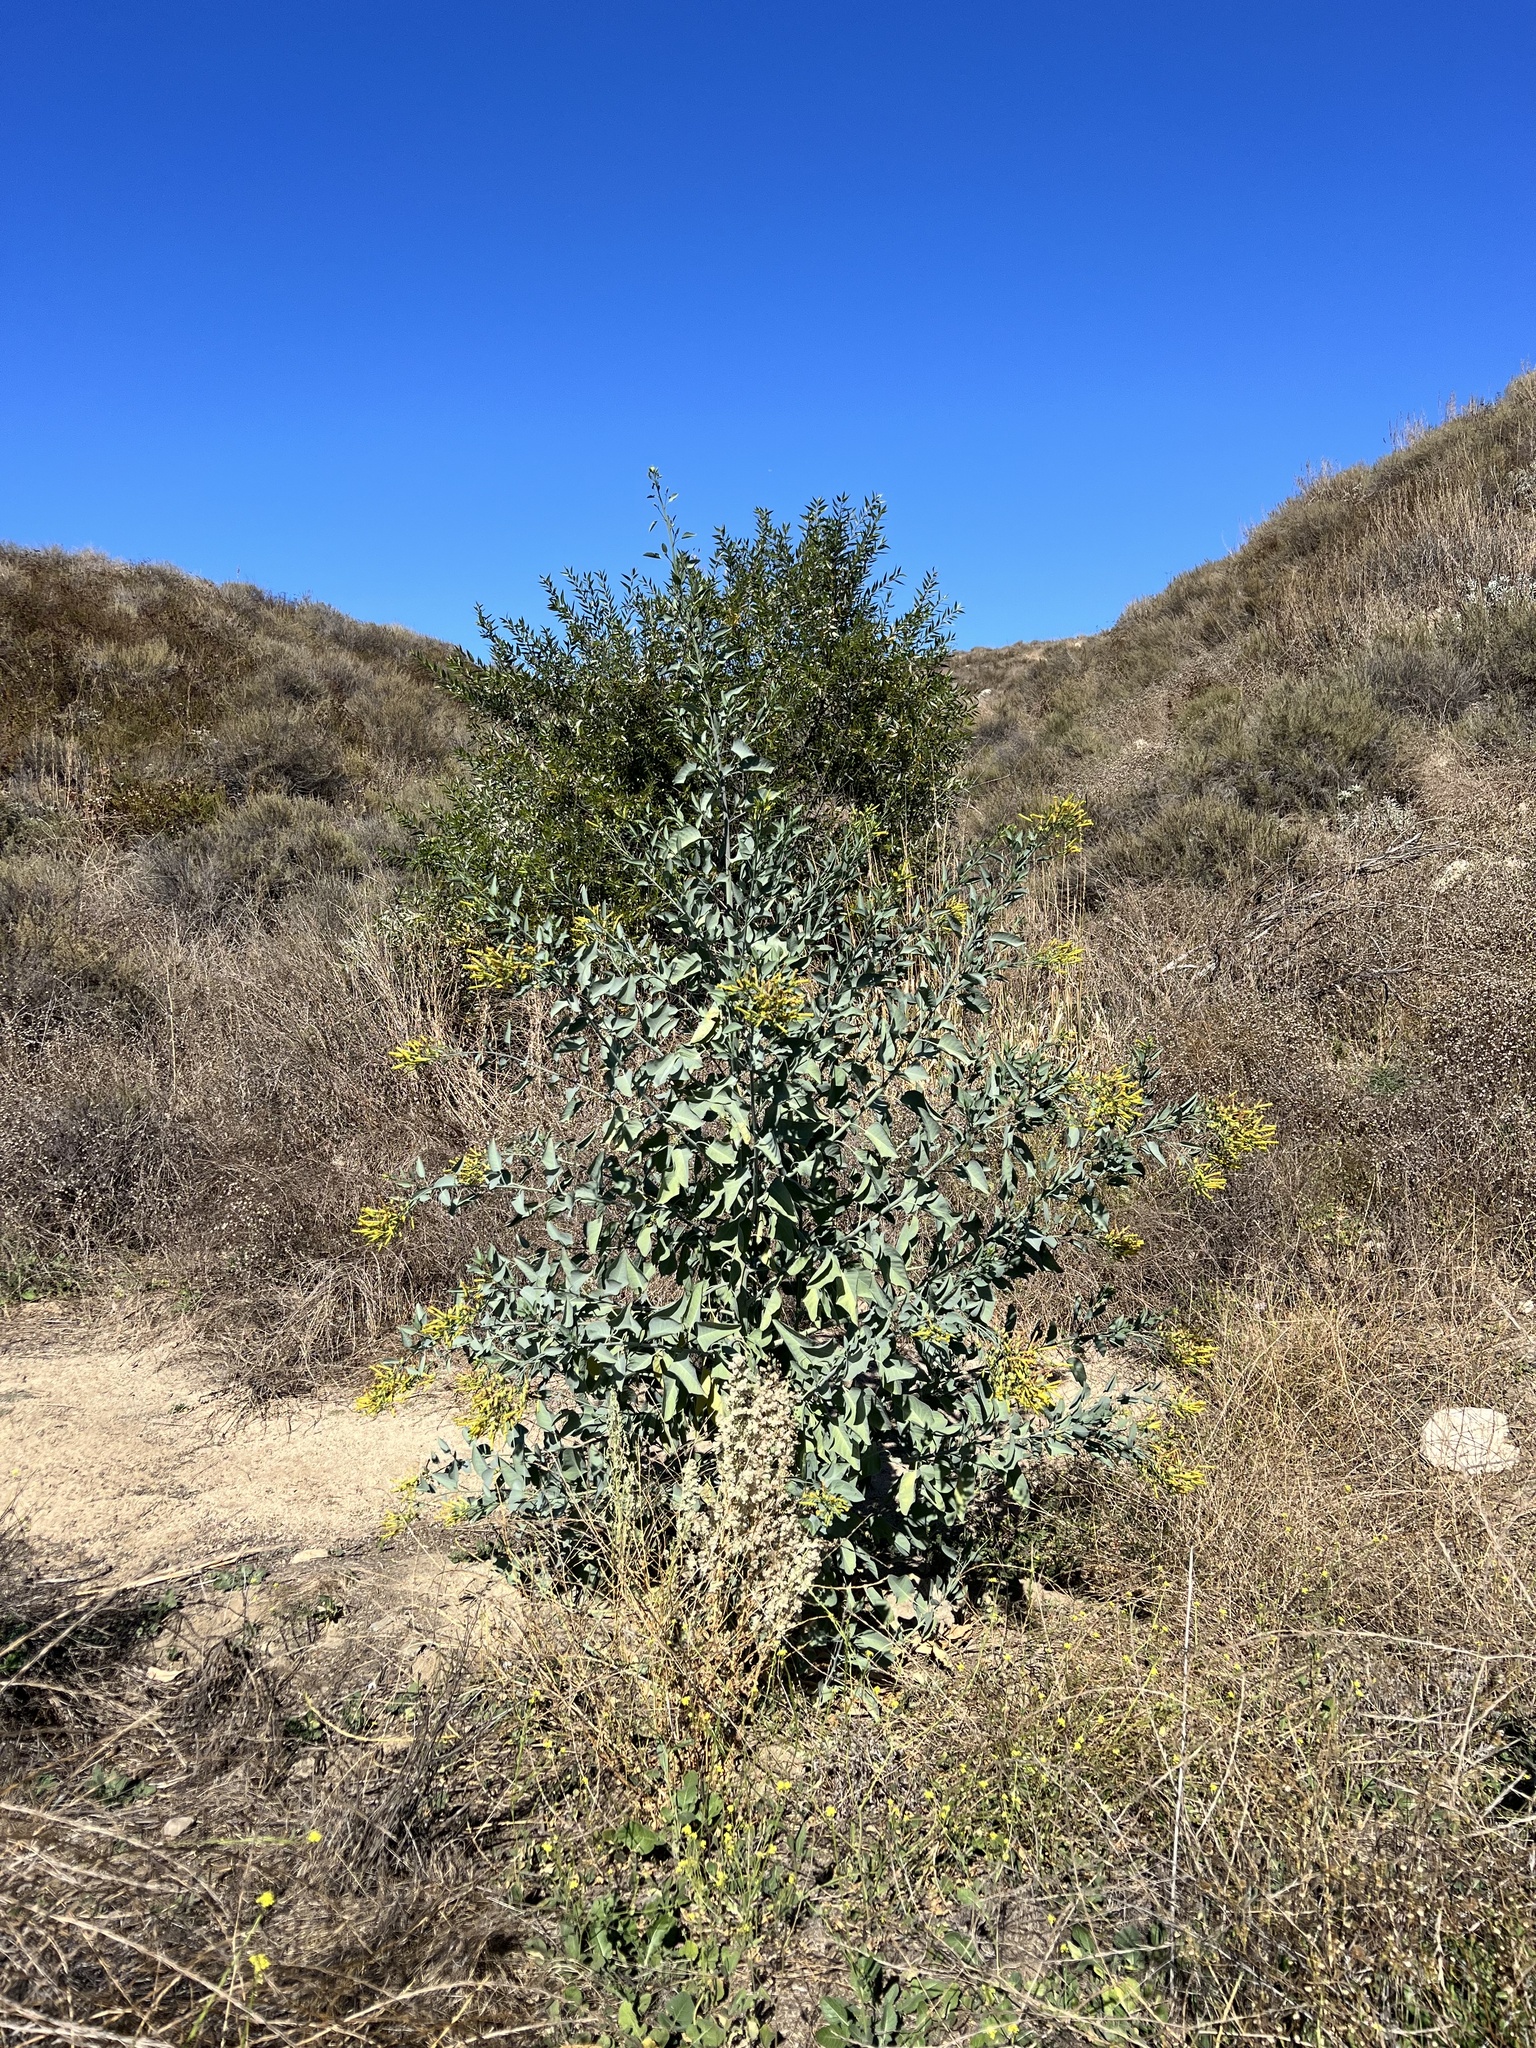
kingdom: Plantae
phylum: Tracheophyta
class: Magnoliopsida
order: Solanales
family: Solanaceae
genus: Nicotiana
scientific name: Nicotiana glauca
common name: Tree tobacco
